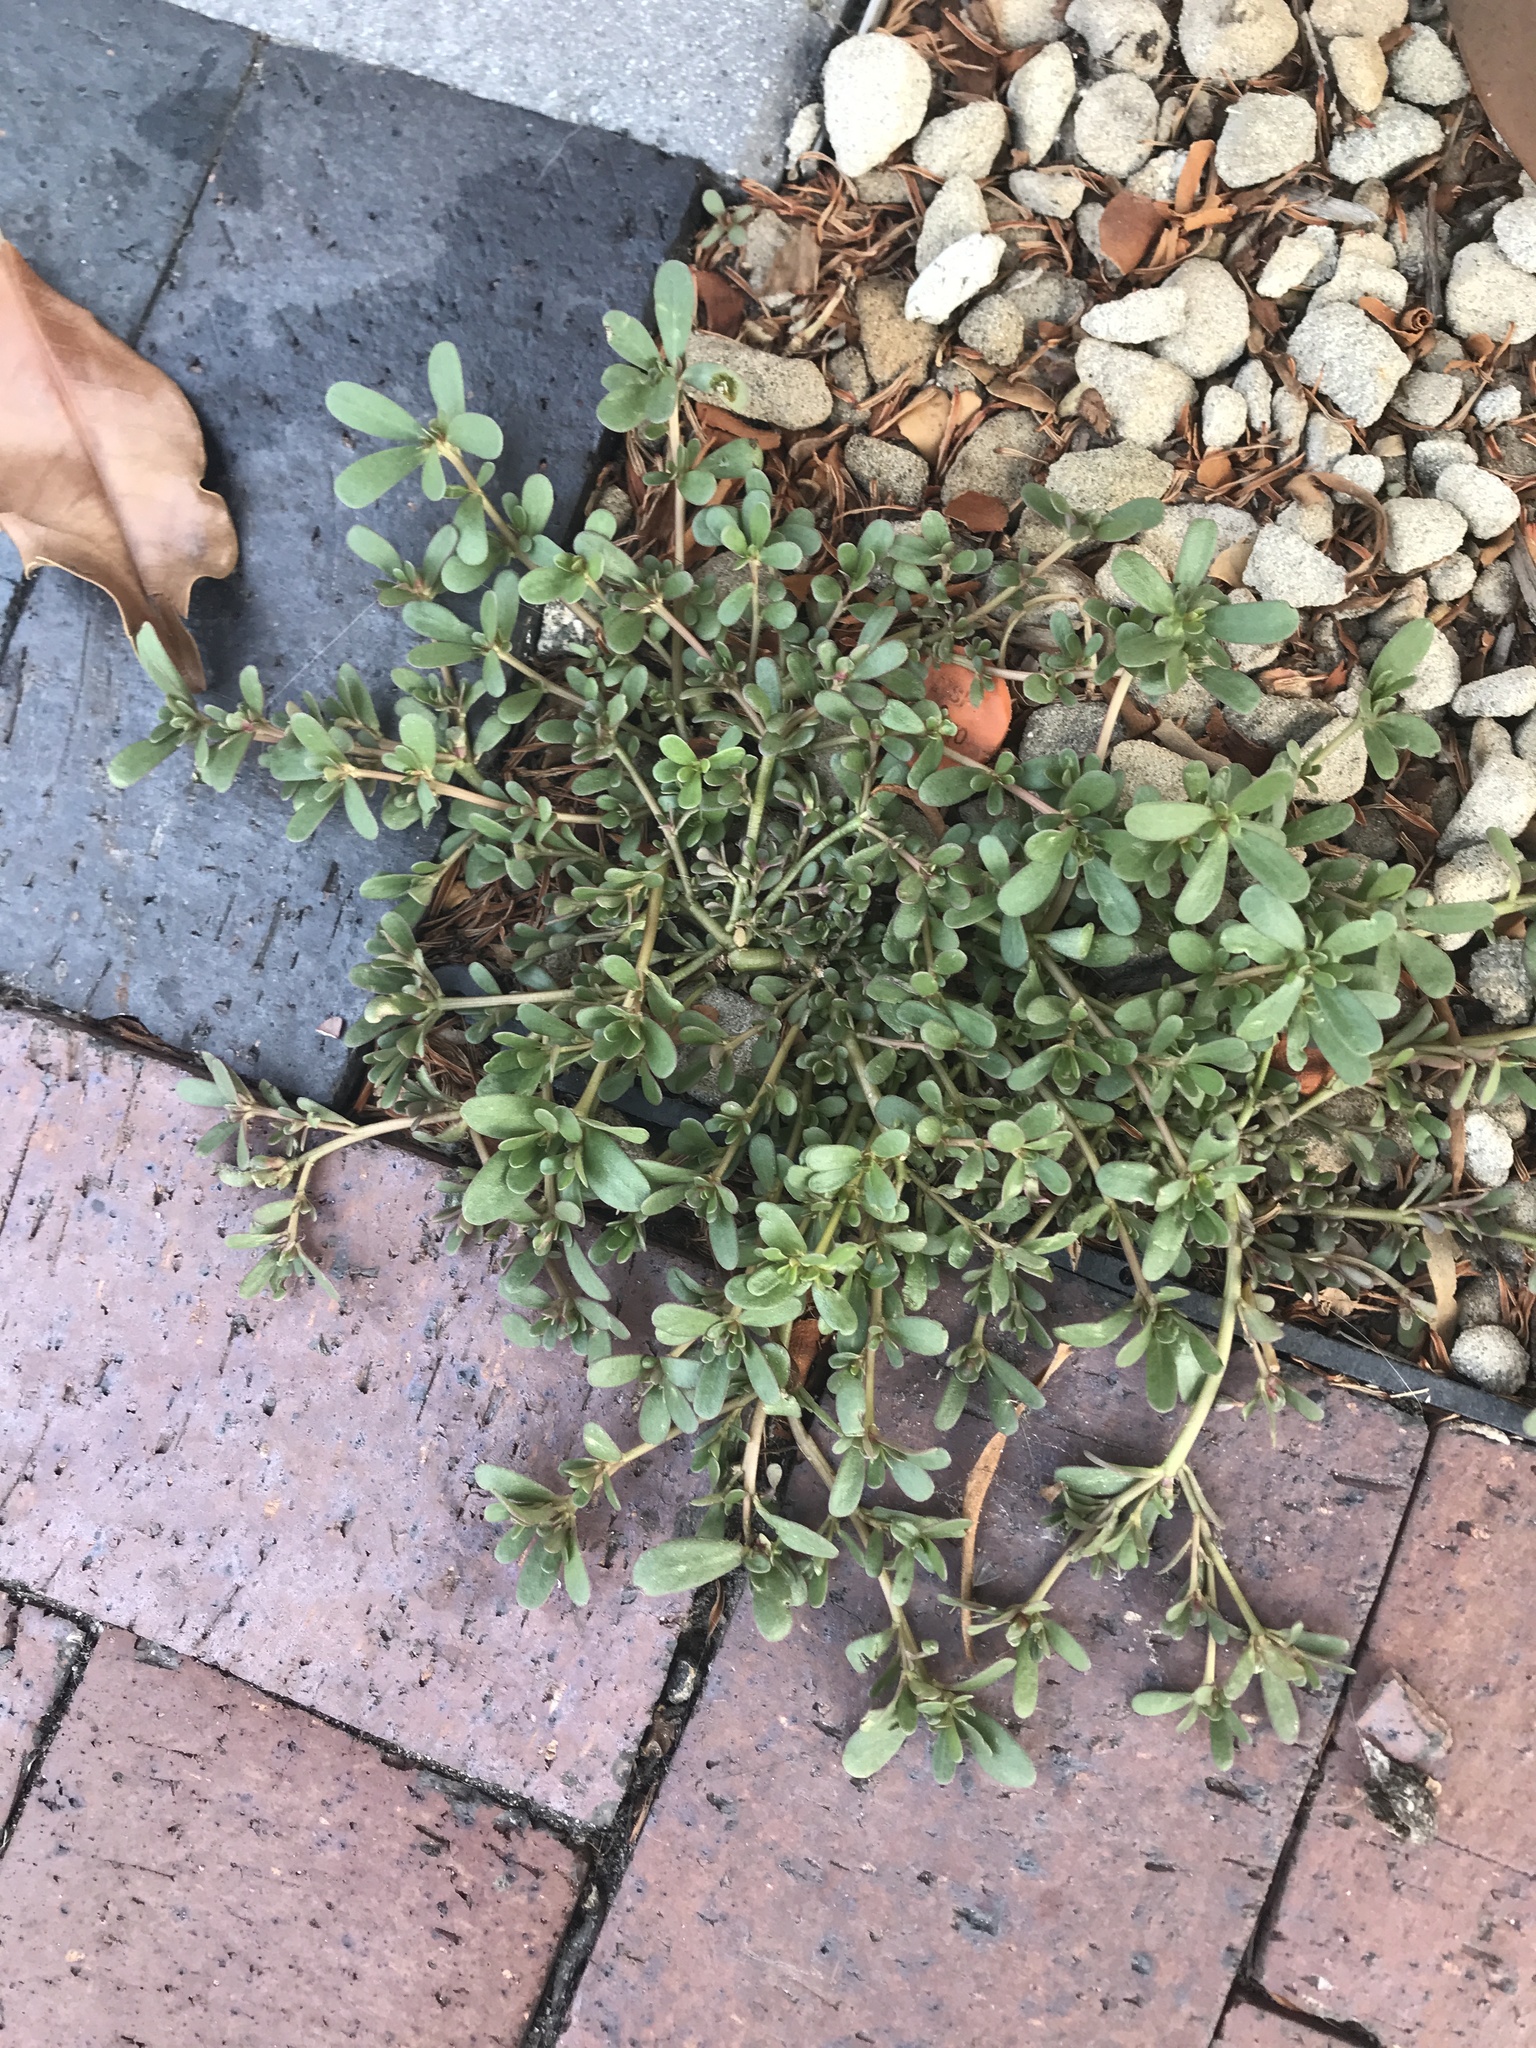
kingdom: Plantae
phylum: Tracheophyta
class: Magnoliopsida
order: Caryophyllales
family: Portulacaceae
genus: Portulaca
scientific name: Portulaca oleracea
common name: Common purslane
